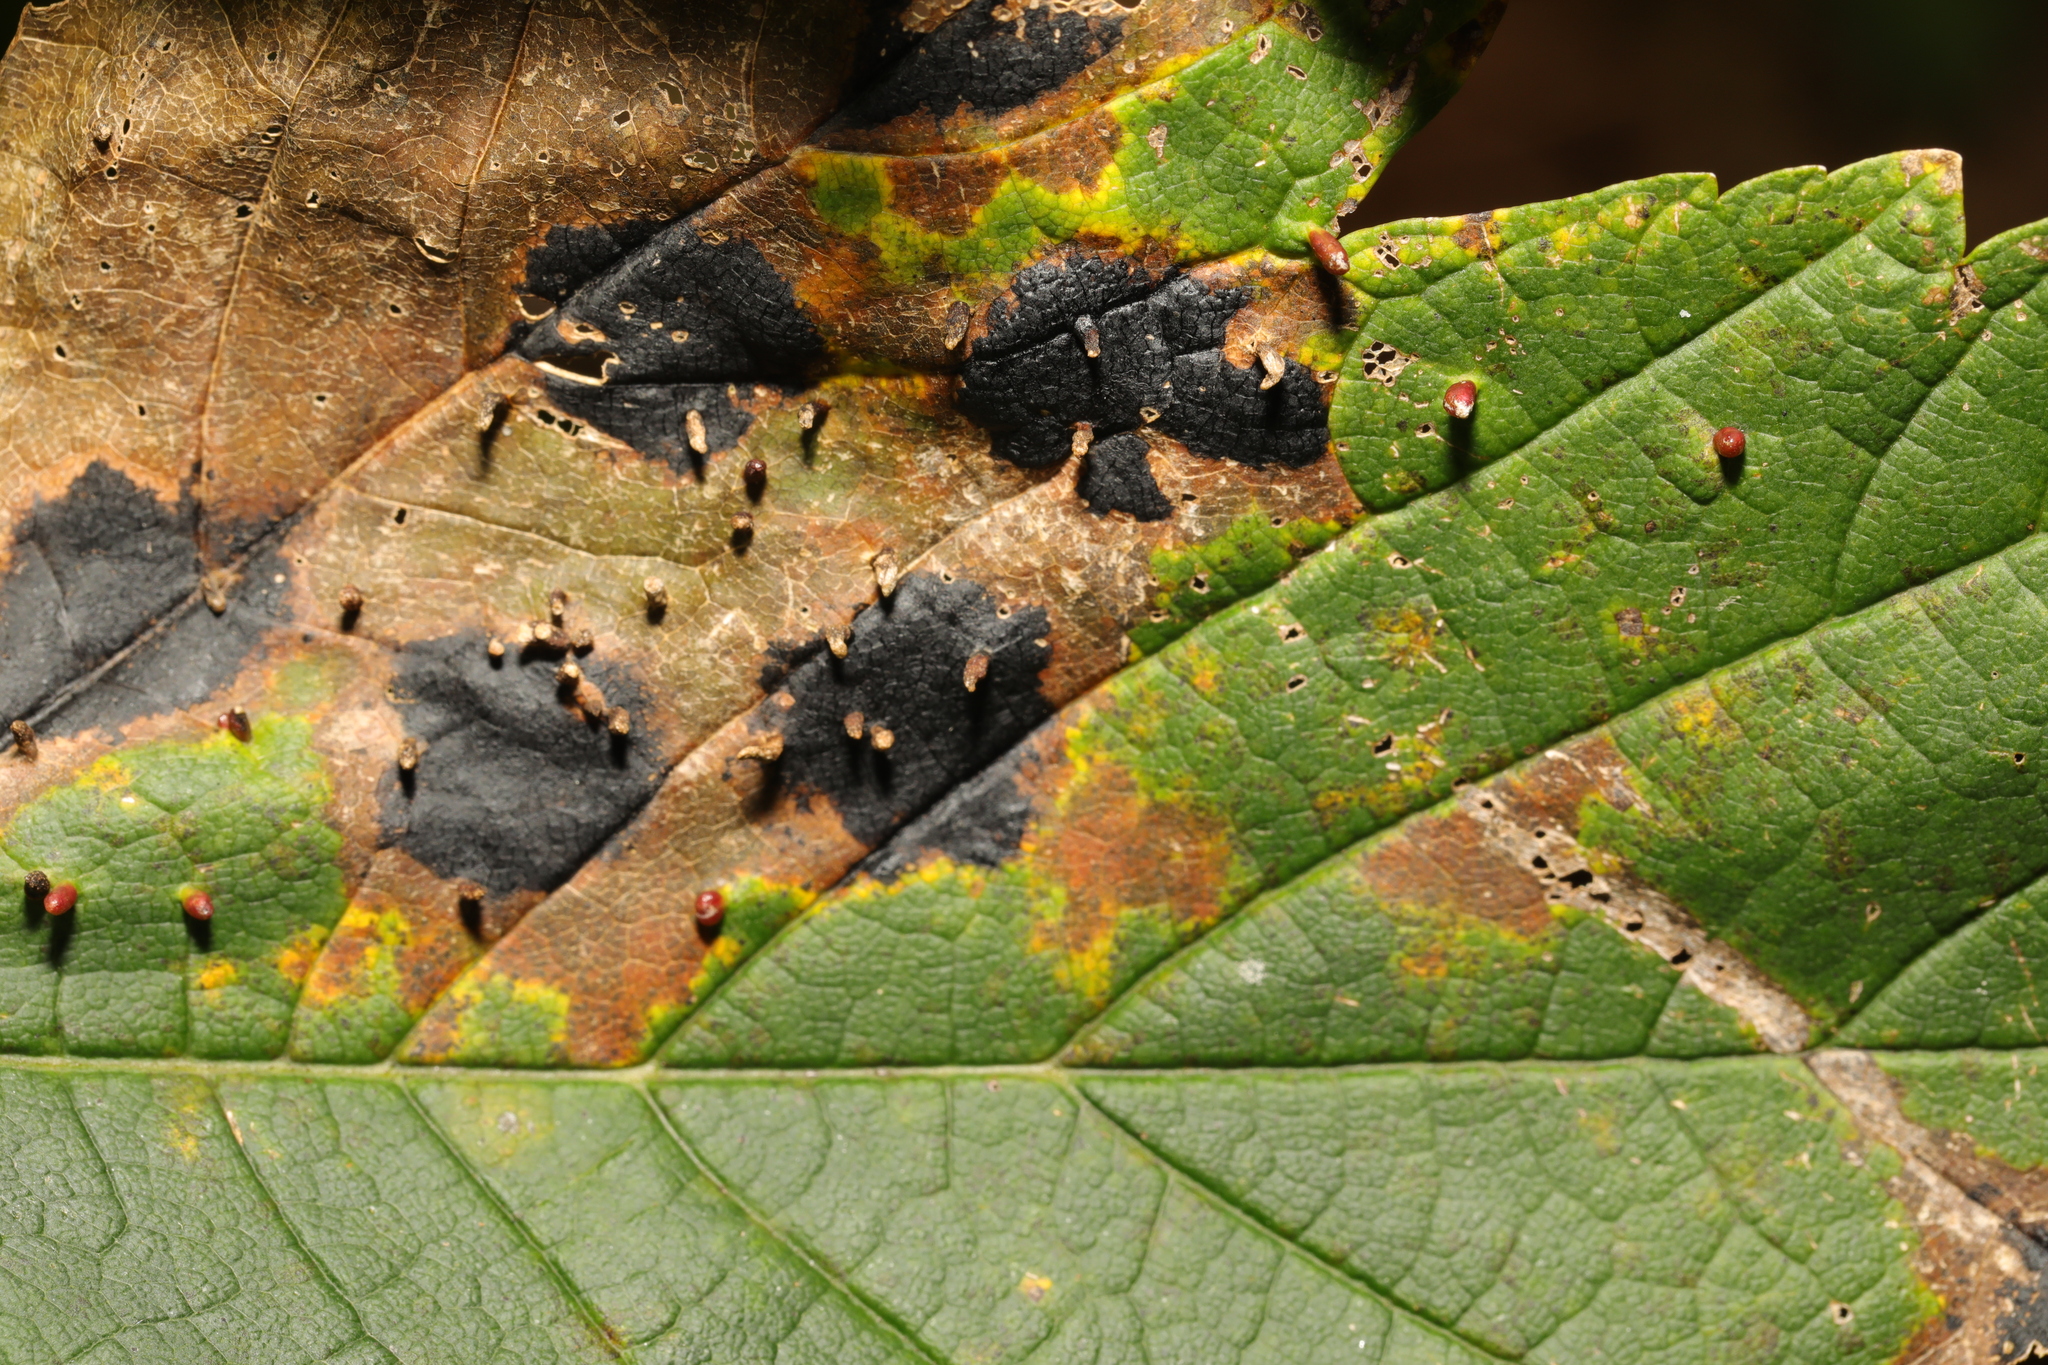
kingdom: Fungi
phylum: Ascomycota
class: Leotiomycetes
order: Rhytismatales
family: Rhytismataceae
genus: Rhytisma
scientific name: Rhytisma acerinum
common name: European tar spot
